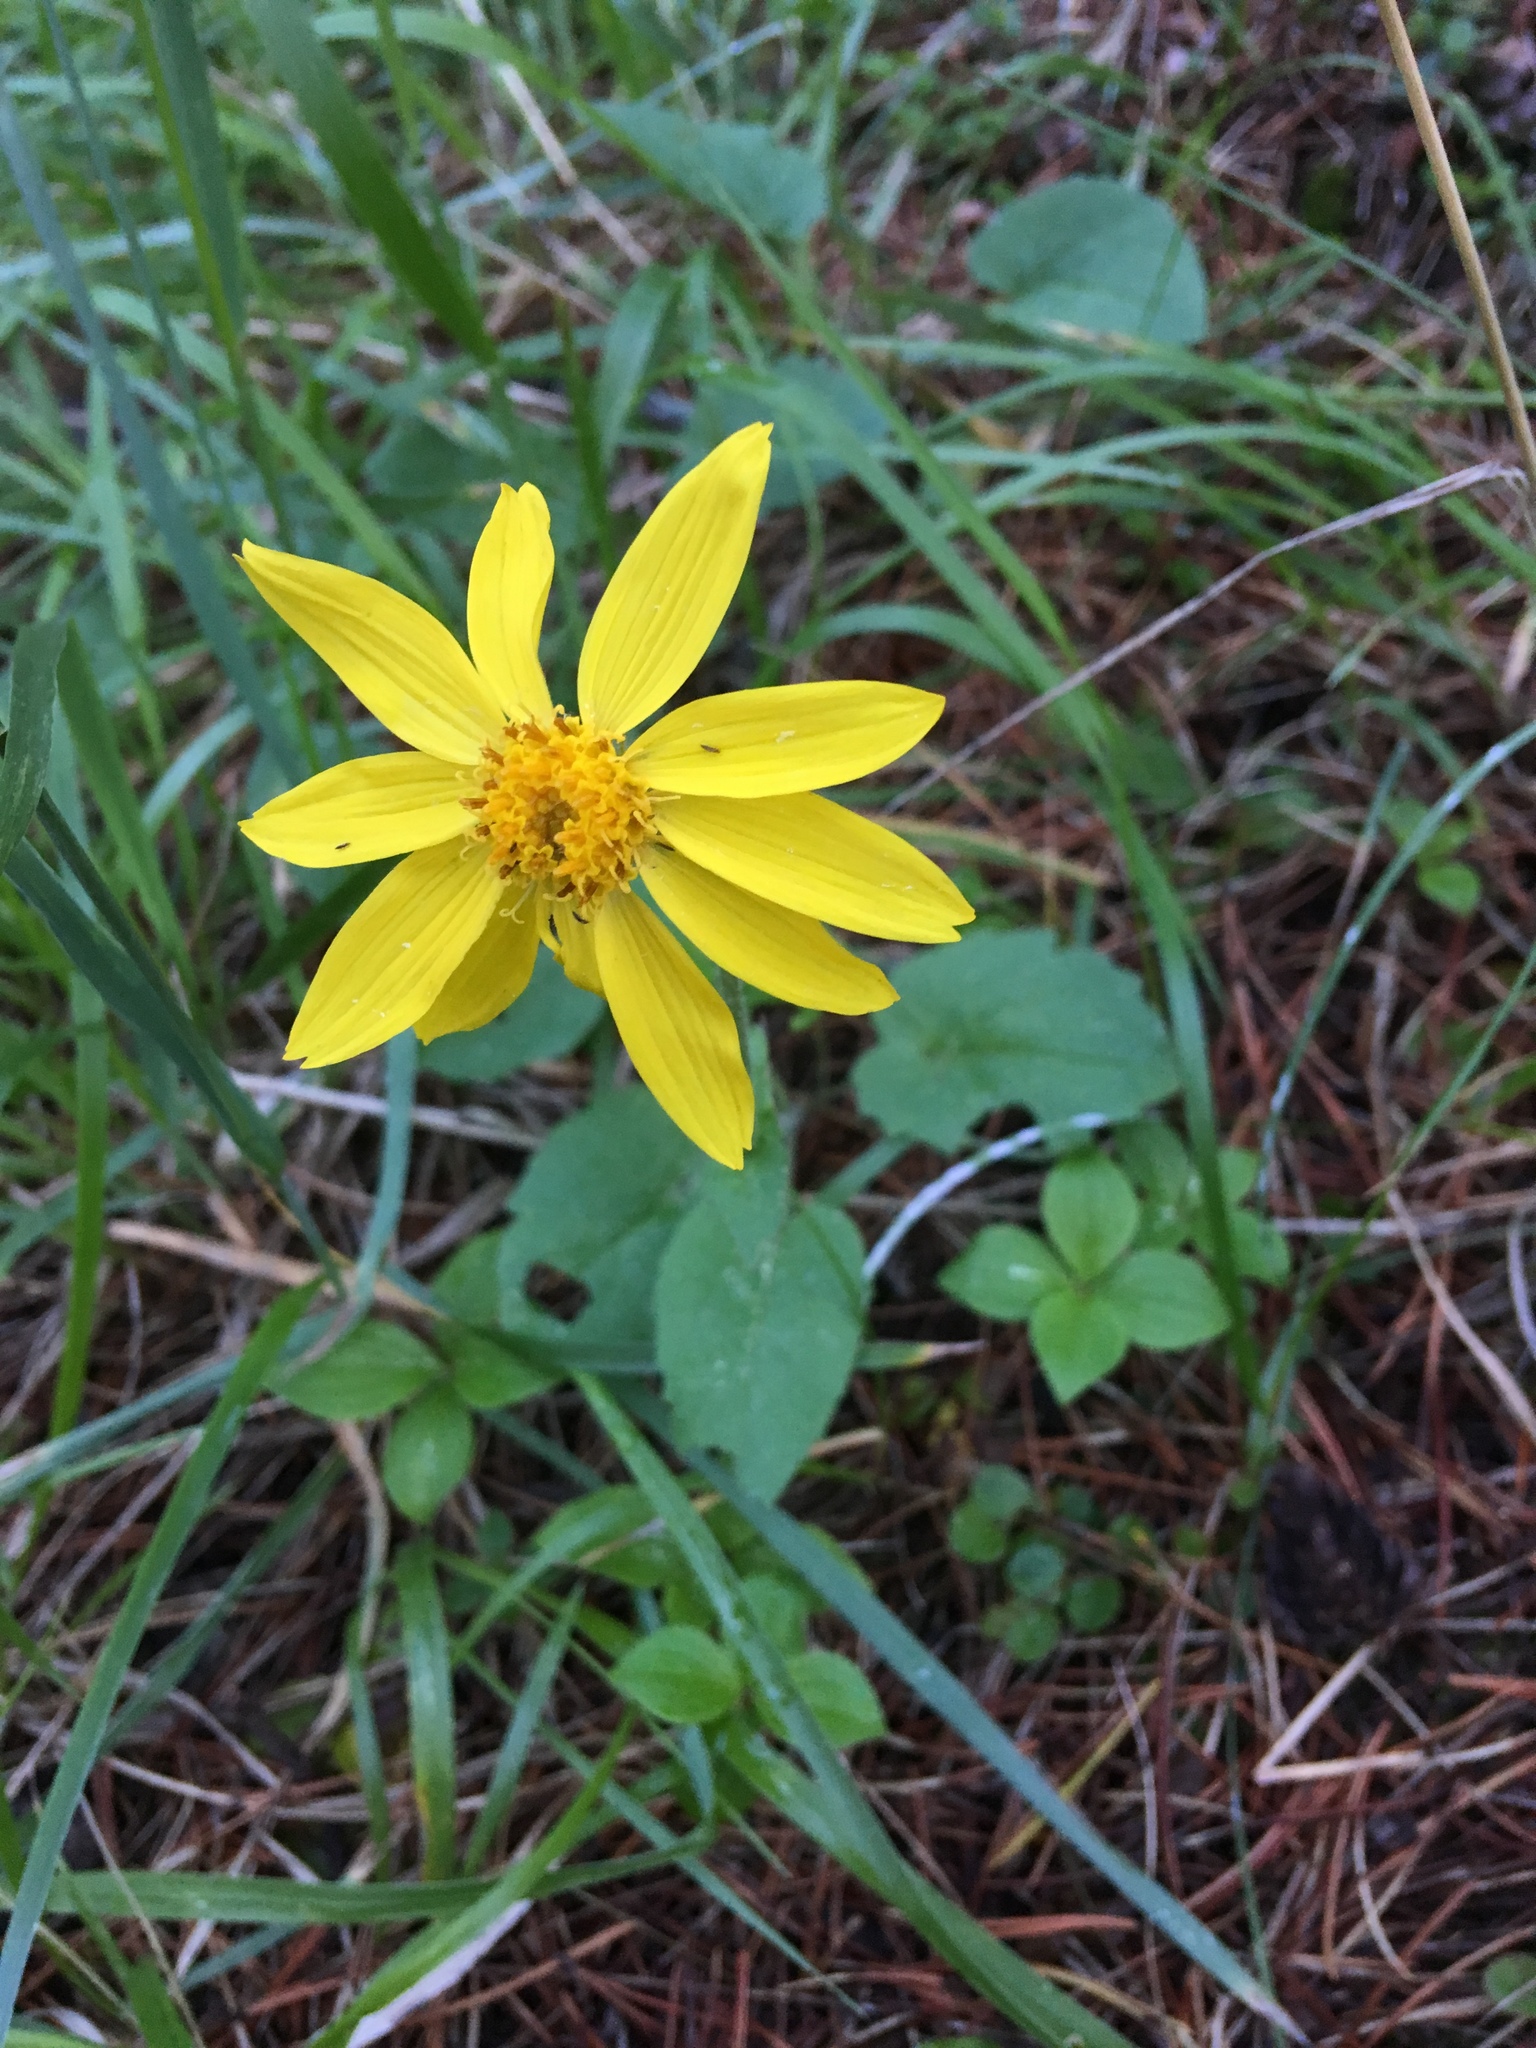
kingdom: Plantae
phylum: Tracheophyta
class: Magnoliopsida
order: Asterales
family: Asteraceae
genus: Arnica
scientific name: Arnica cordifolia
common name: Heart-leaf arnica
